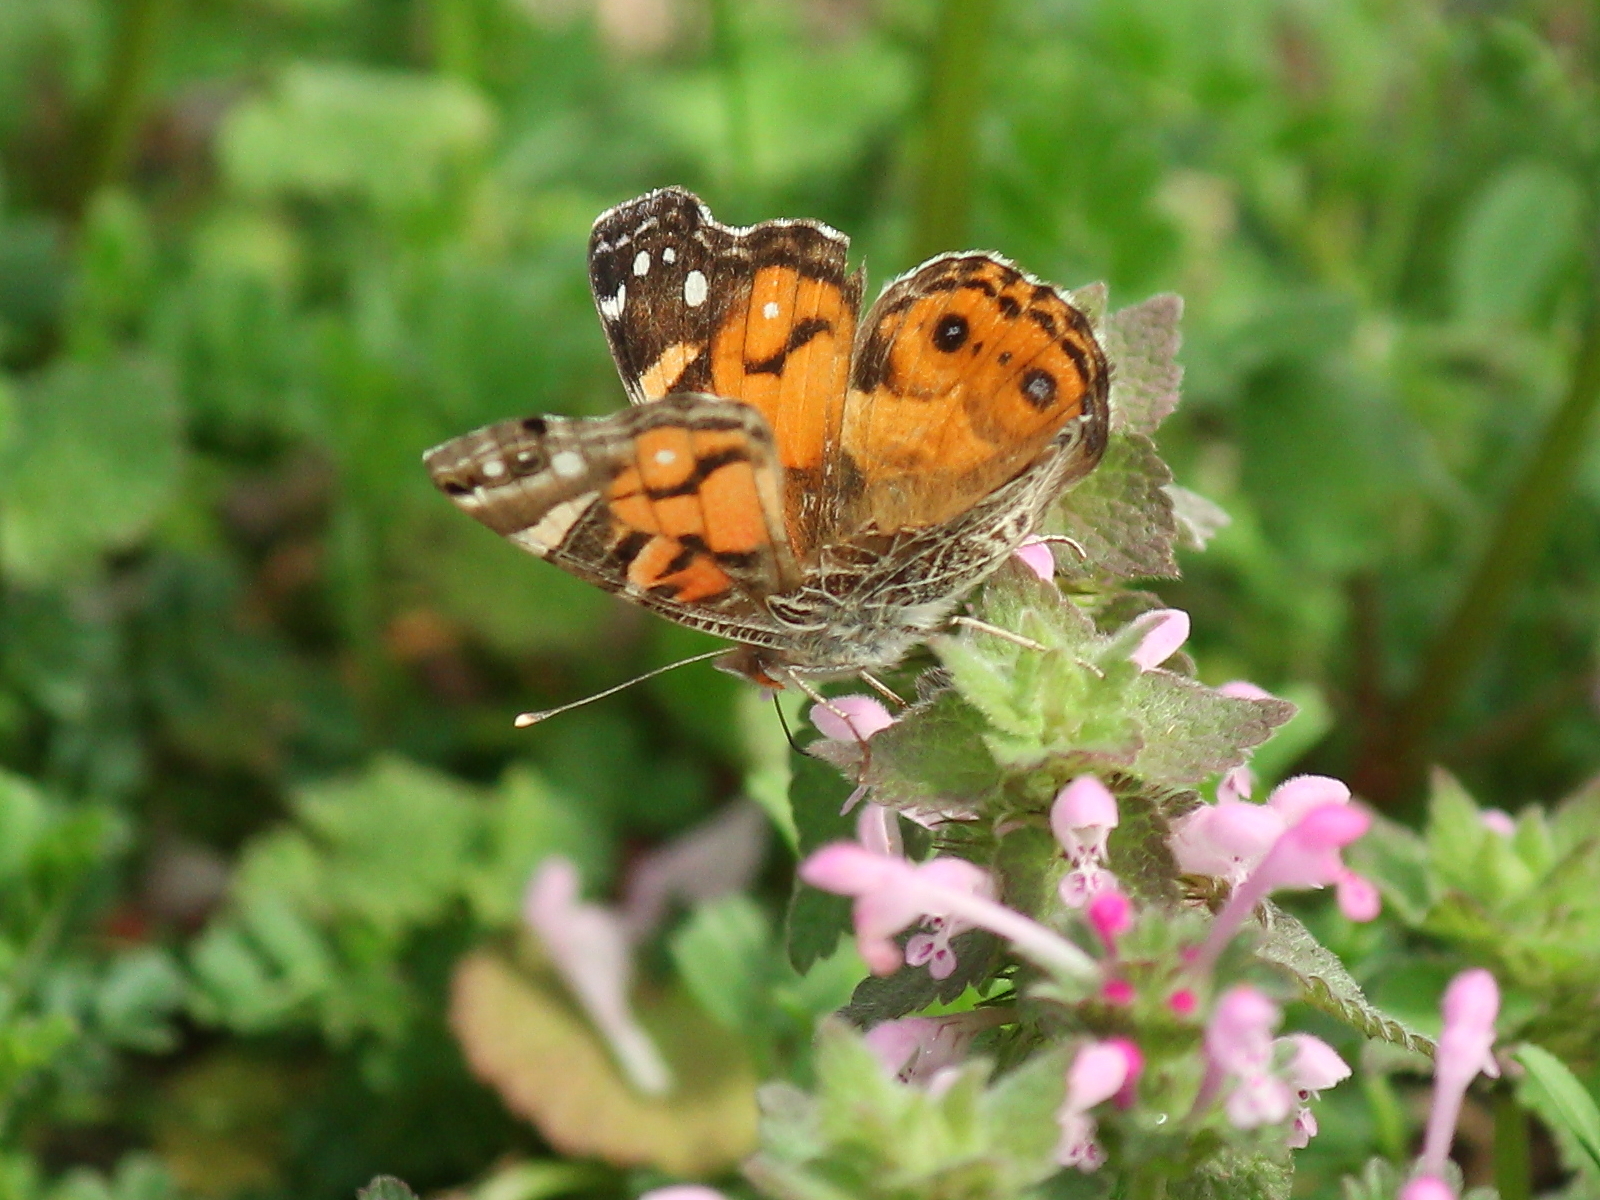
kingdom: Animalia
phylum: Arthropoda
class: Insecta
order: Lepidoptera
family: Nymphalidae
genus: Vanessa
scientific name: Vanessa virginiensis
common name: American lady
